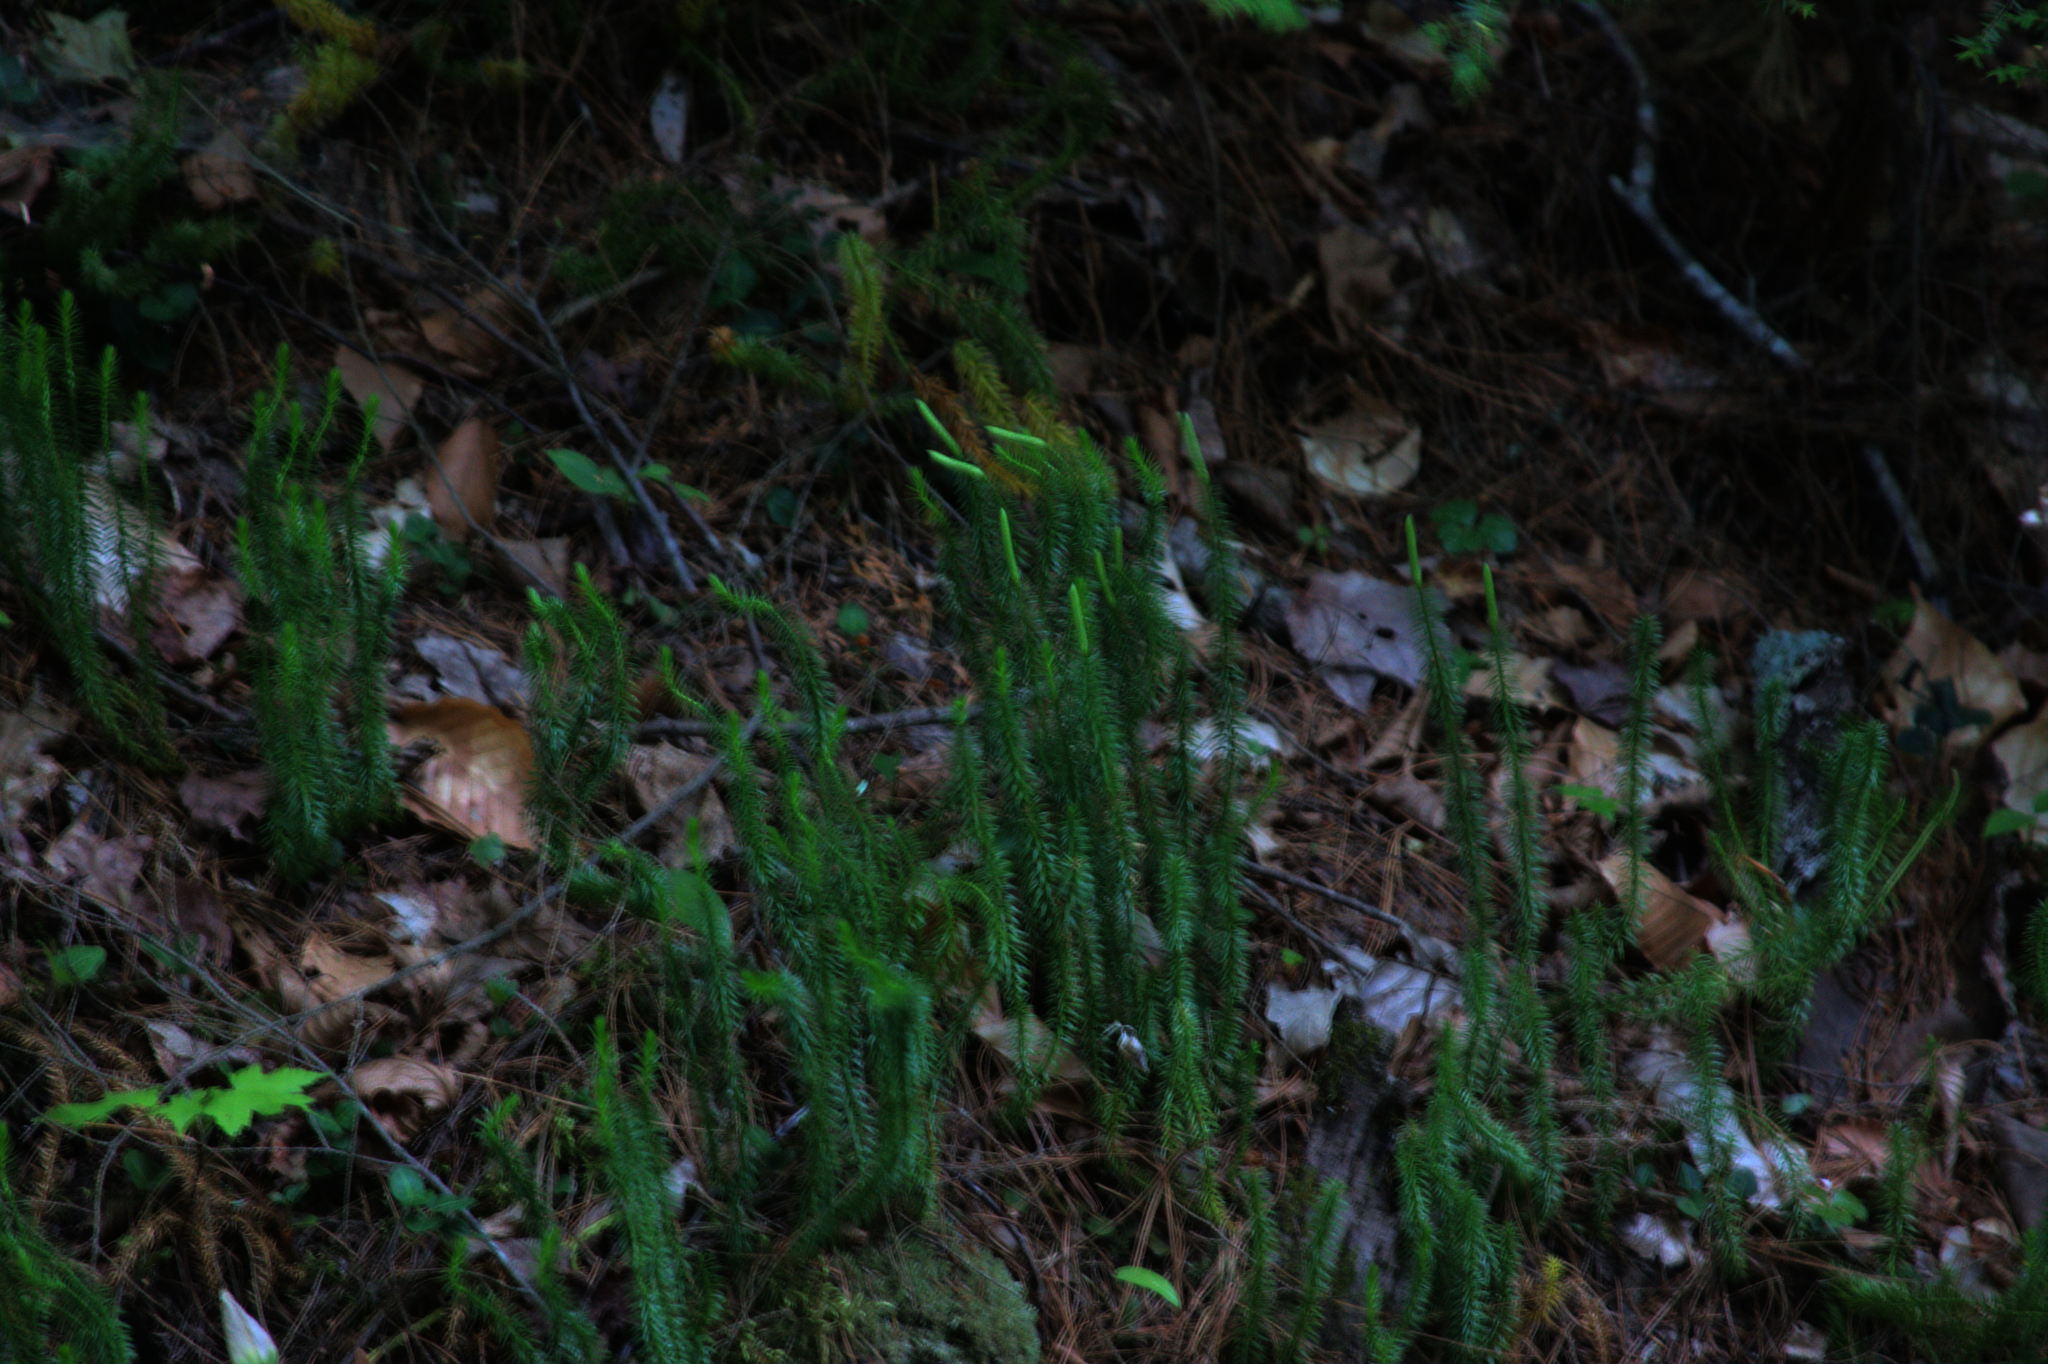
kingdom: Plantae
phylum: Tracheophyta
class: Lycopodiopsida
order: Lycopodiales
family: Lycopodiaceae
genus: Spinulum
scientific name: Spinulum annotinum
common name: Interrupted club-moss
